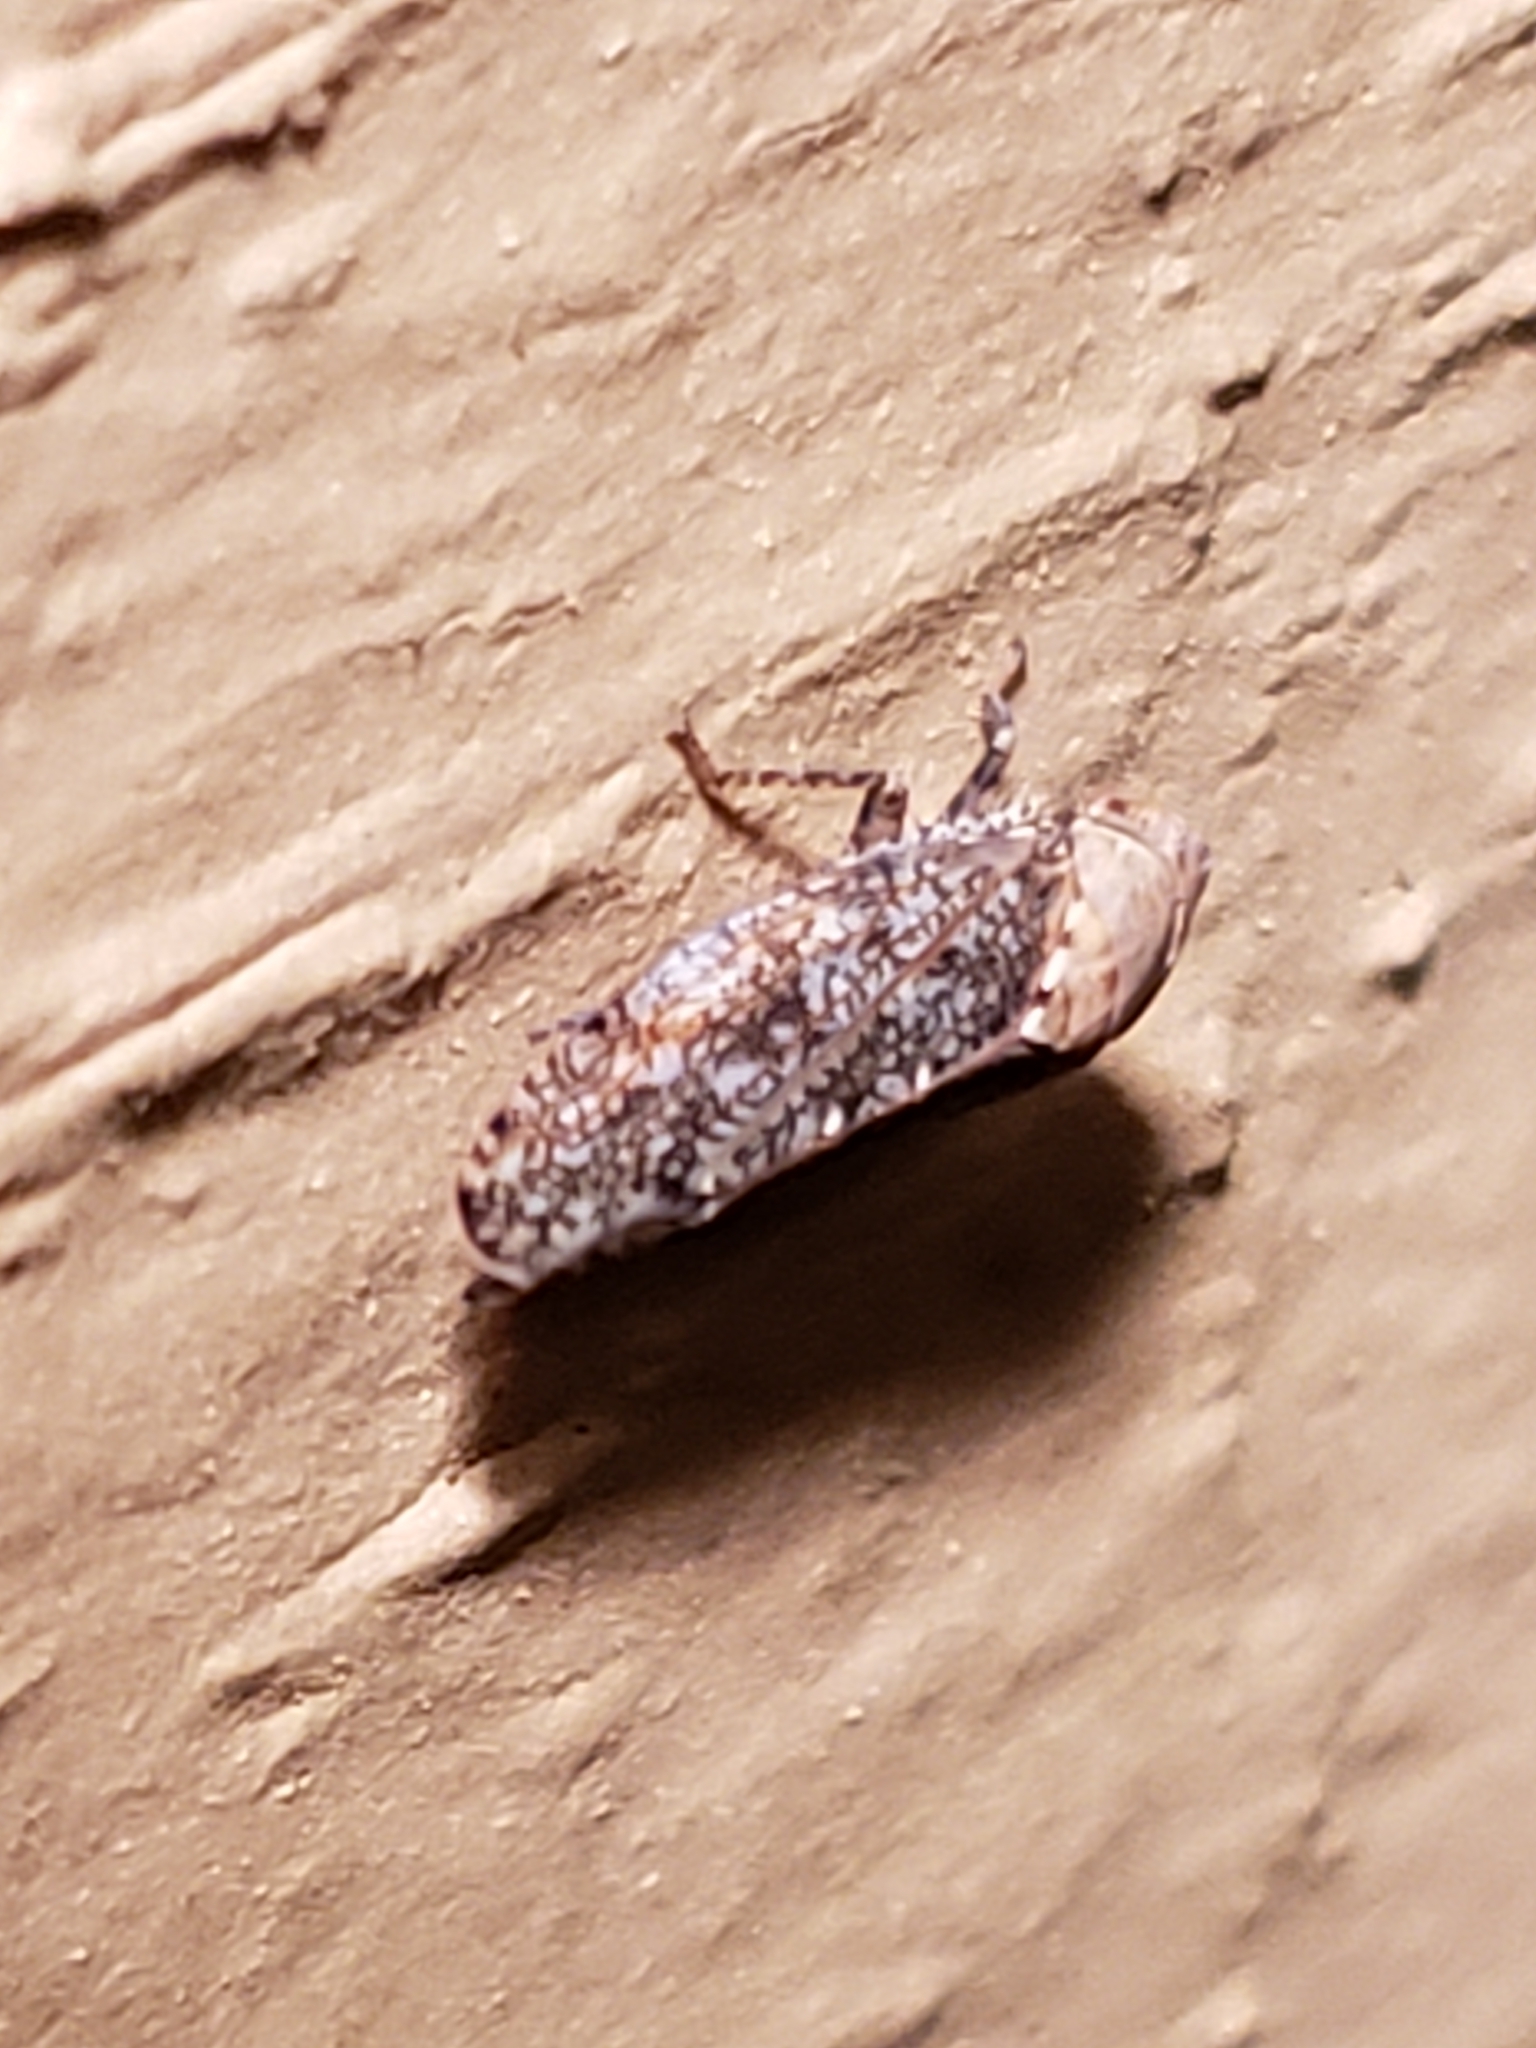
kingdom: Animalia
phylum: Arthropoda
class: Insecta
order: Hemiptera
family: Cicadellidae
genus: Paraphlepsius
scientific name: Paraphlepsius fulvidorsum
